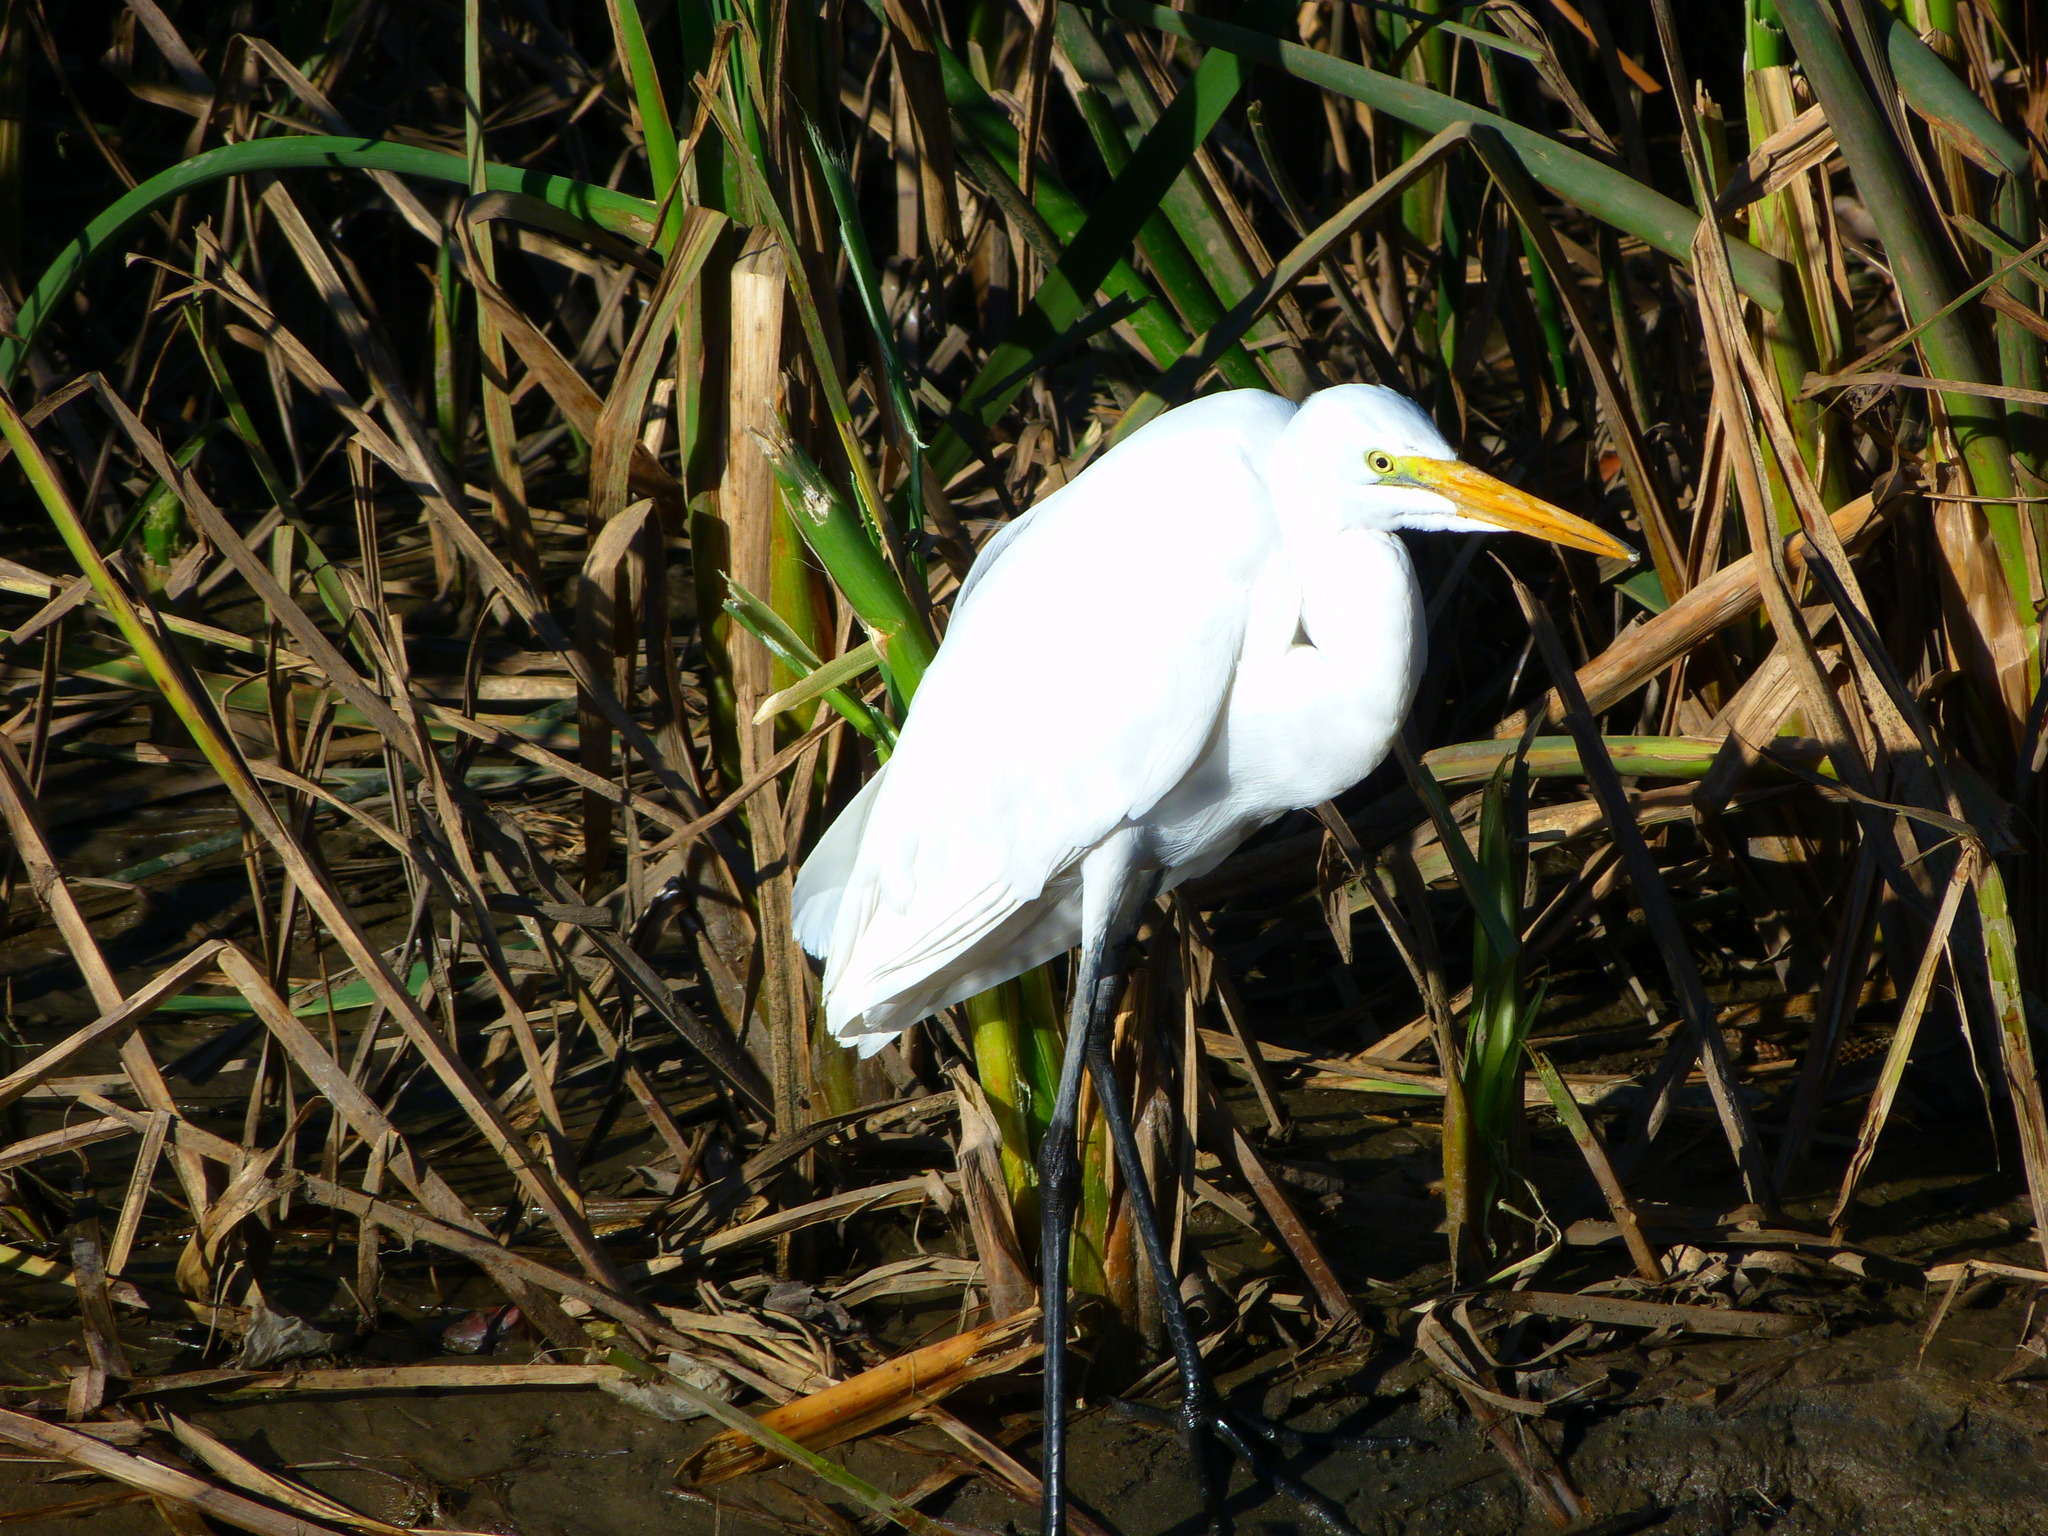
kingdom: Animalia
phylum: Chordata
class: Aves
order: Pelecaniformes
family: Ardeidae
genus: Ardea
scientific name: Ardea alba
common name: Great egret
